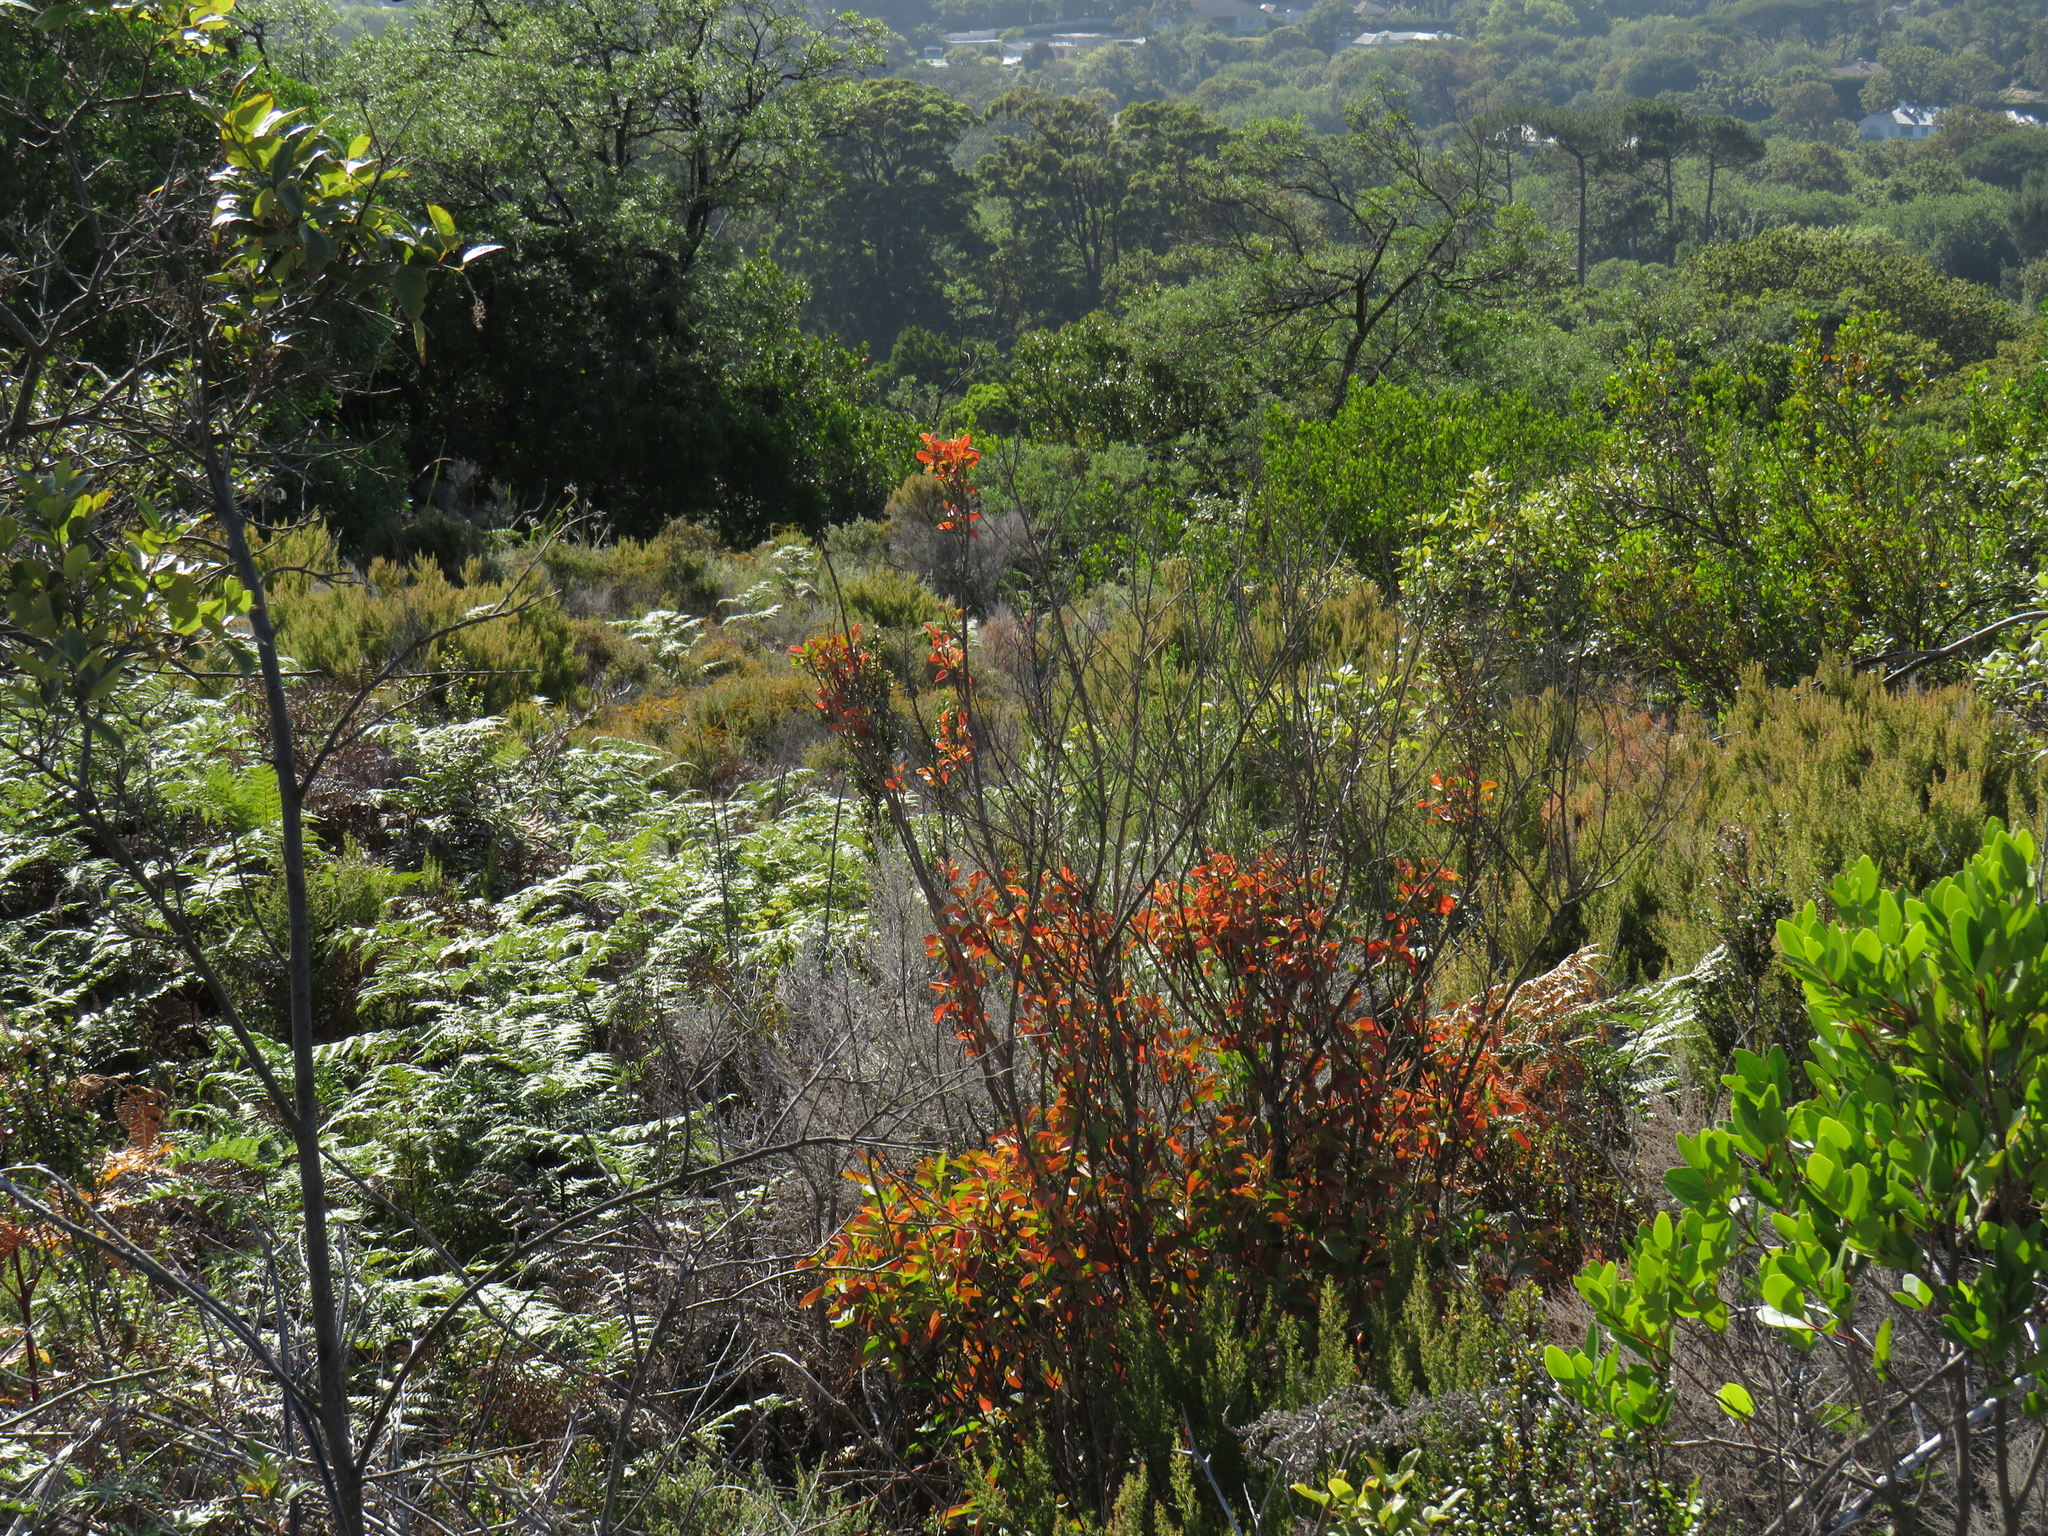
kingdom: Plantae
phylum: Tracheophyta
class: Magnoliopsida
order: Malpighiales
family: Peraceae
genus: Clutia
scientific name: Clutia pulchella
